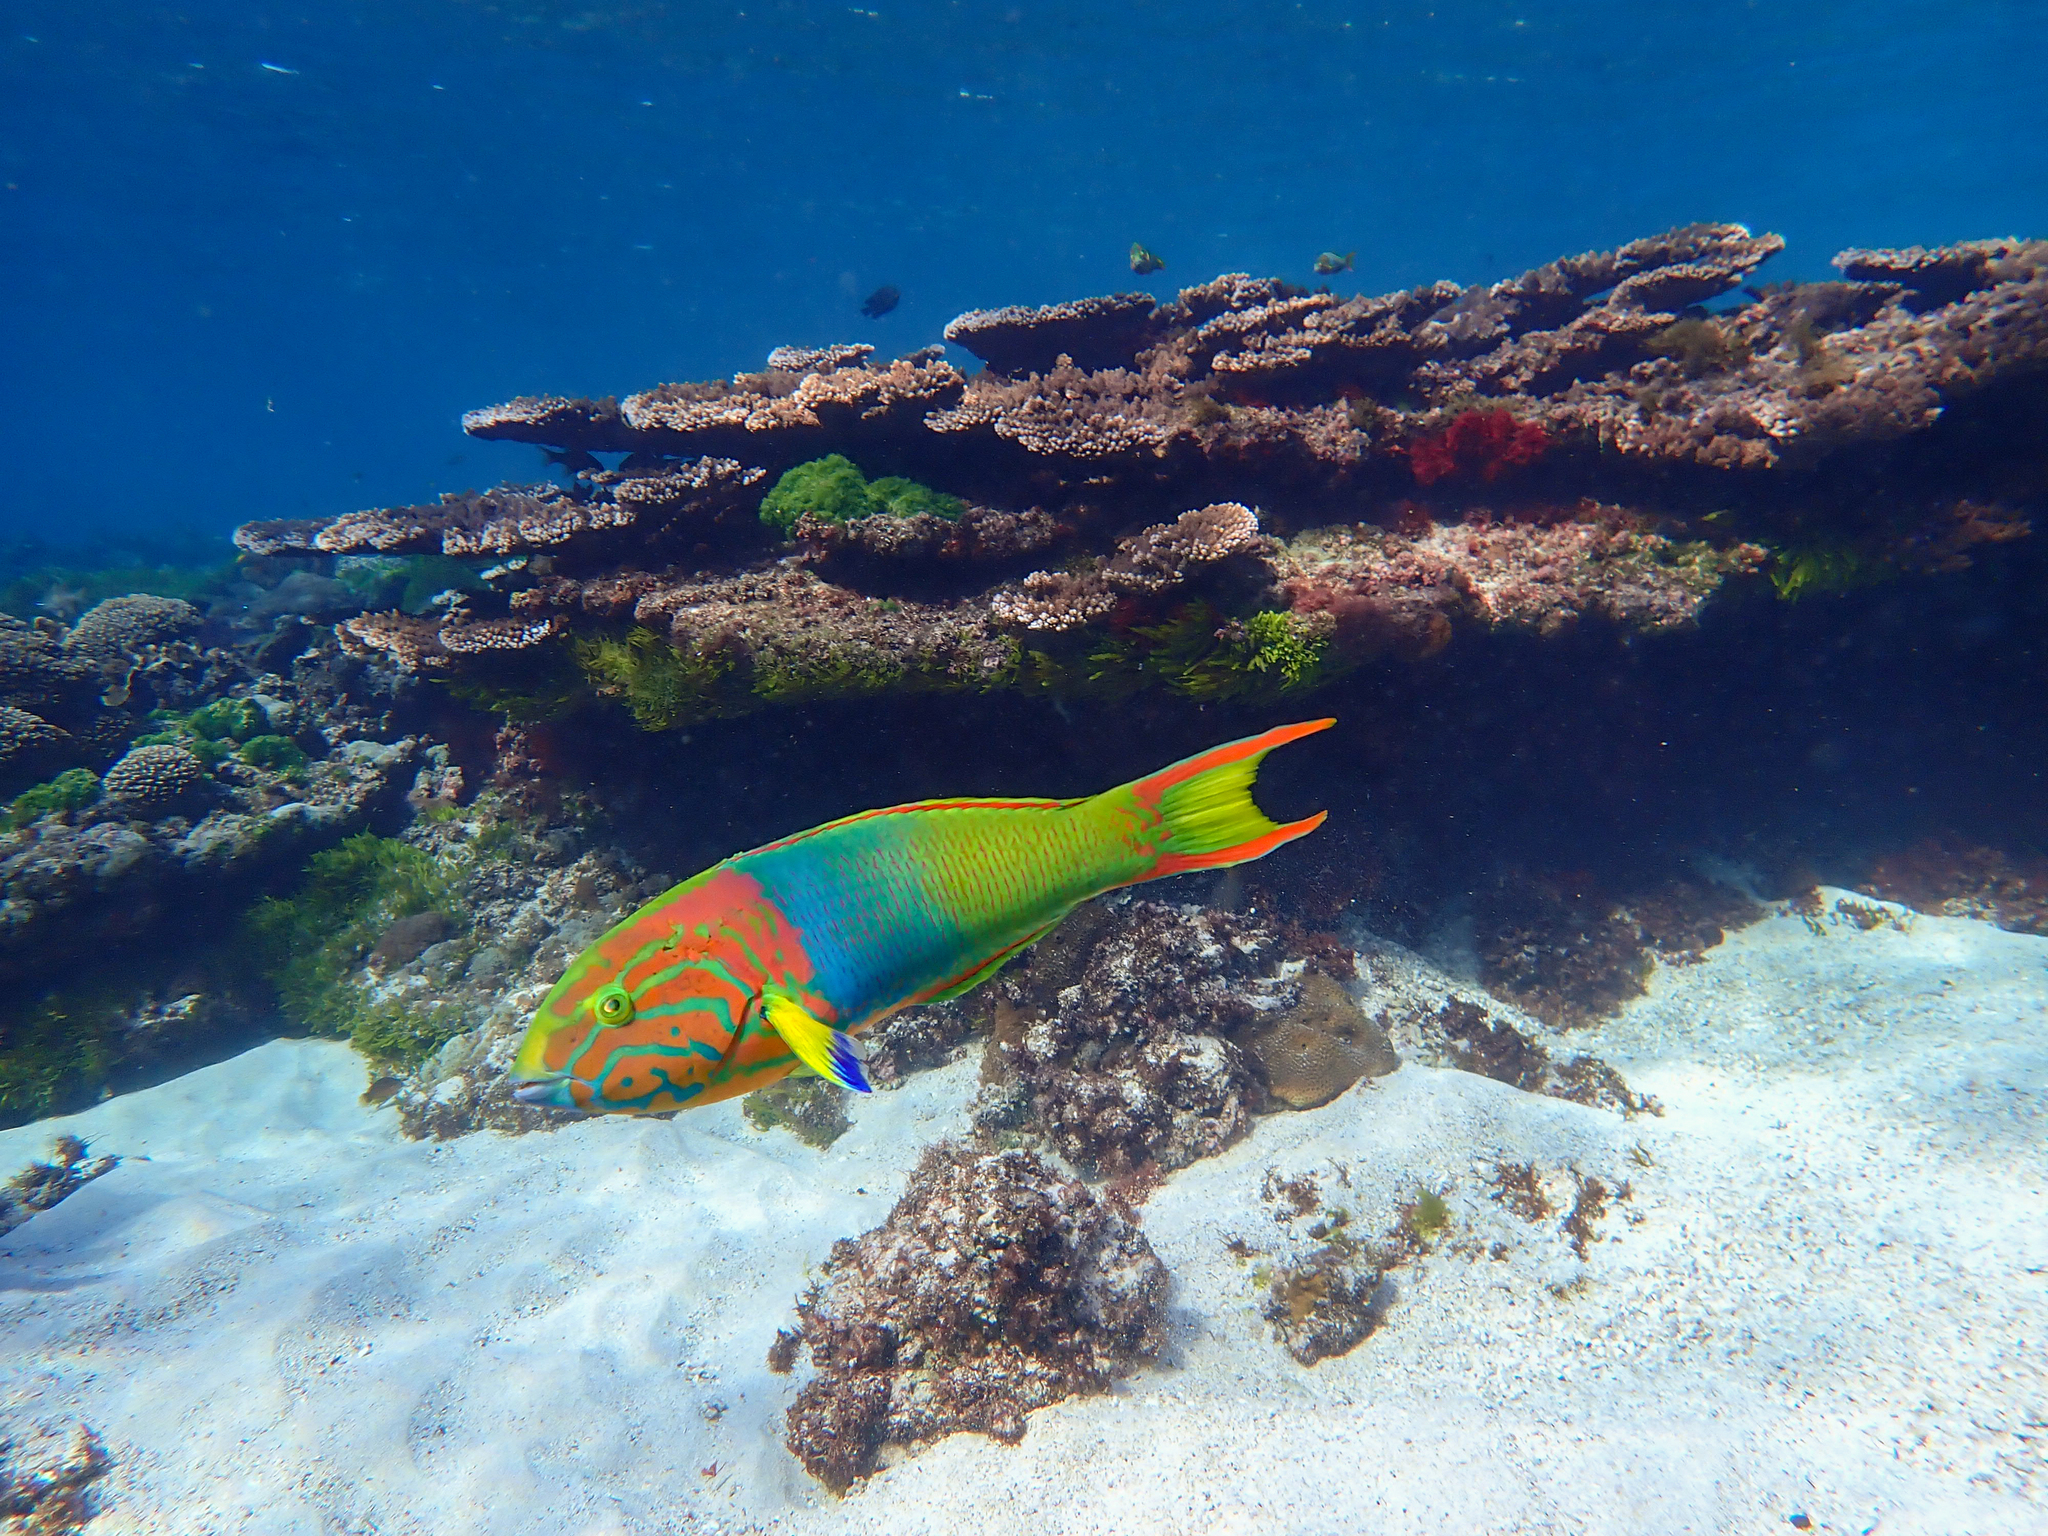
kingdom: Animalia
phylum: Chordata
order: Perciformes
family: Labridae
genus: Thalassoma
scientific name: Thalassoma lutescens
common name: Green moon wrasse
